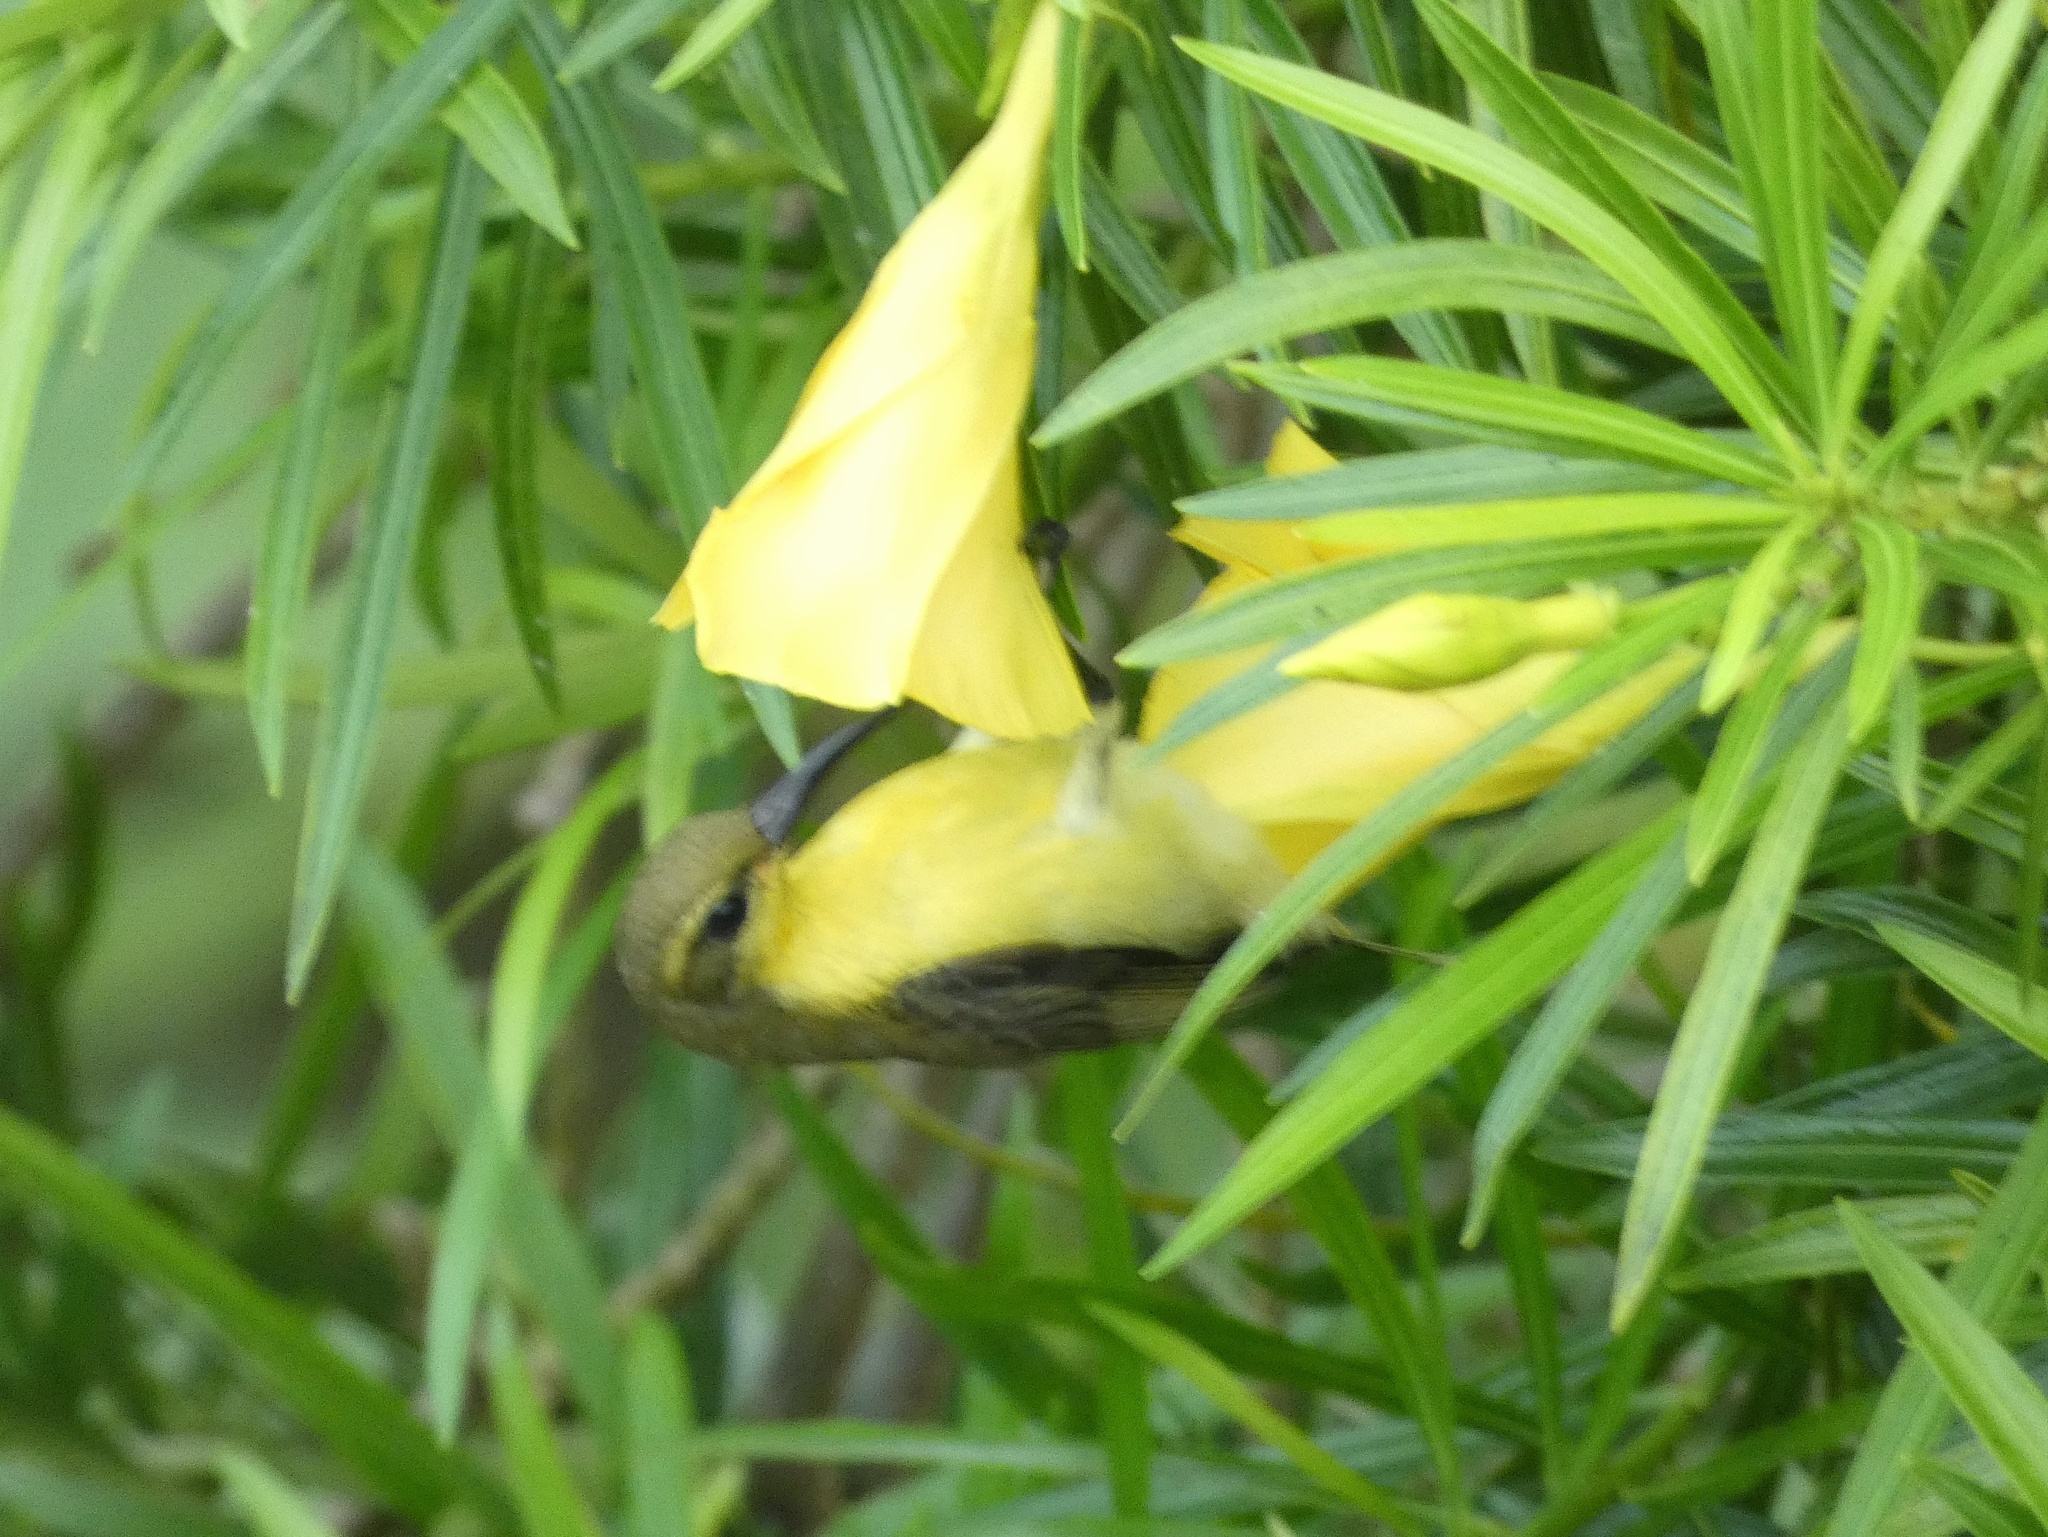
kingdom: Animalia
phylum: Chordata
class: Aves
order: Passeriformes
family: Nectariniidae
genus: Cinnyris
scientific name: Cinnyris jugularis
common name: Olive-backed sunbird
